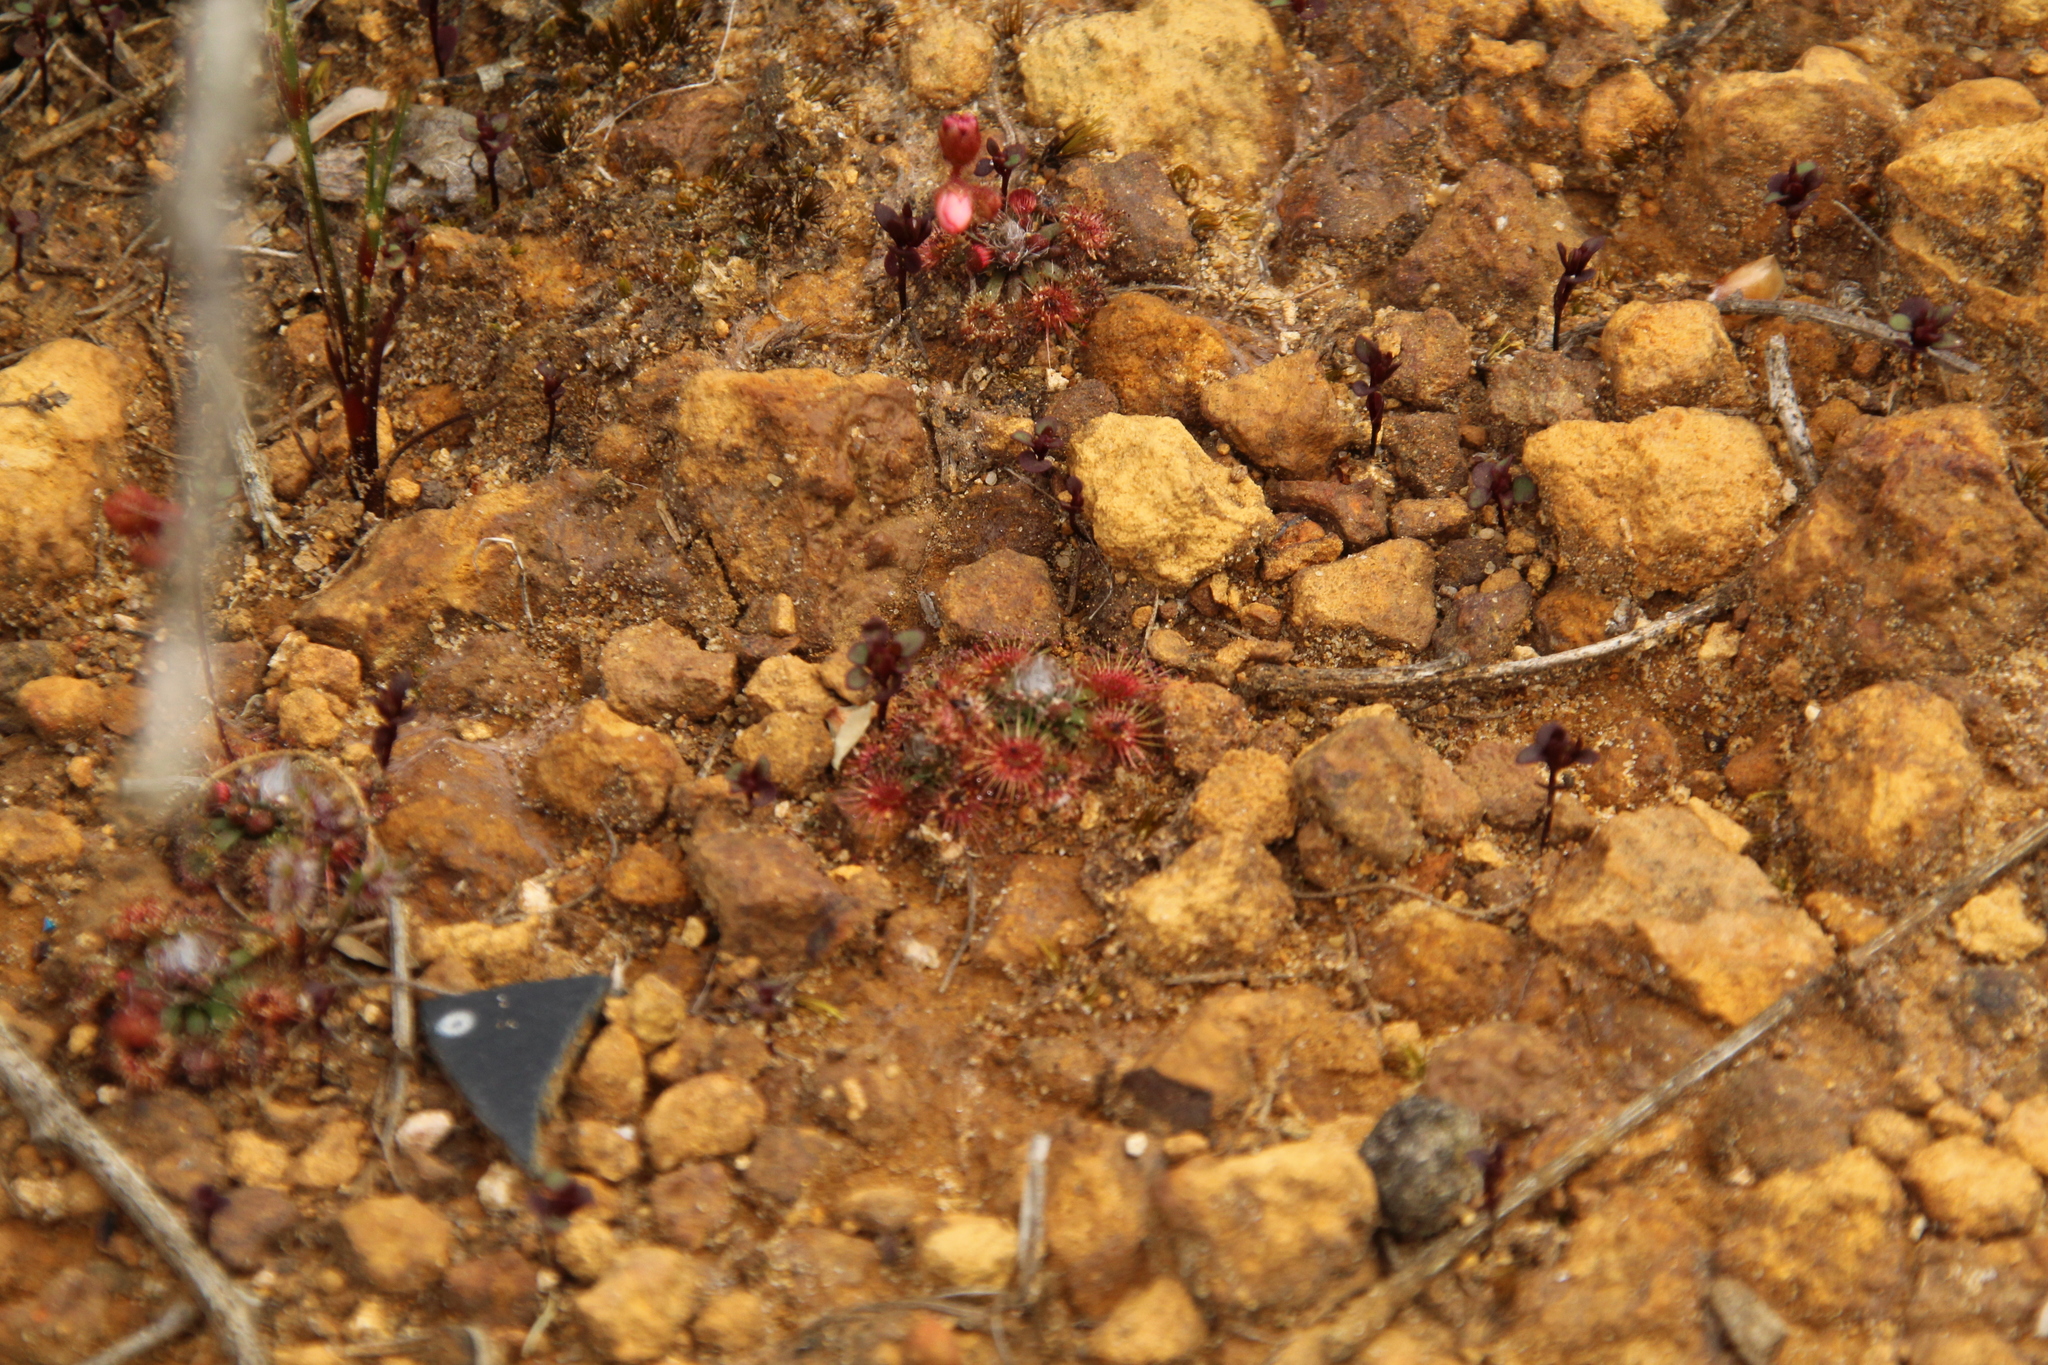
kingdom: Plantae
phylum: Tracheophyta
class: Magnoliopsida
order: Caryophyllales
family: Droseraceae
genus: Drosera
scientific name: Drosera platystigma
